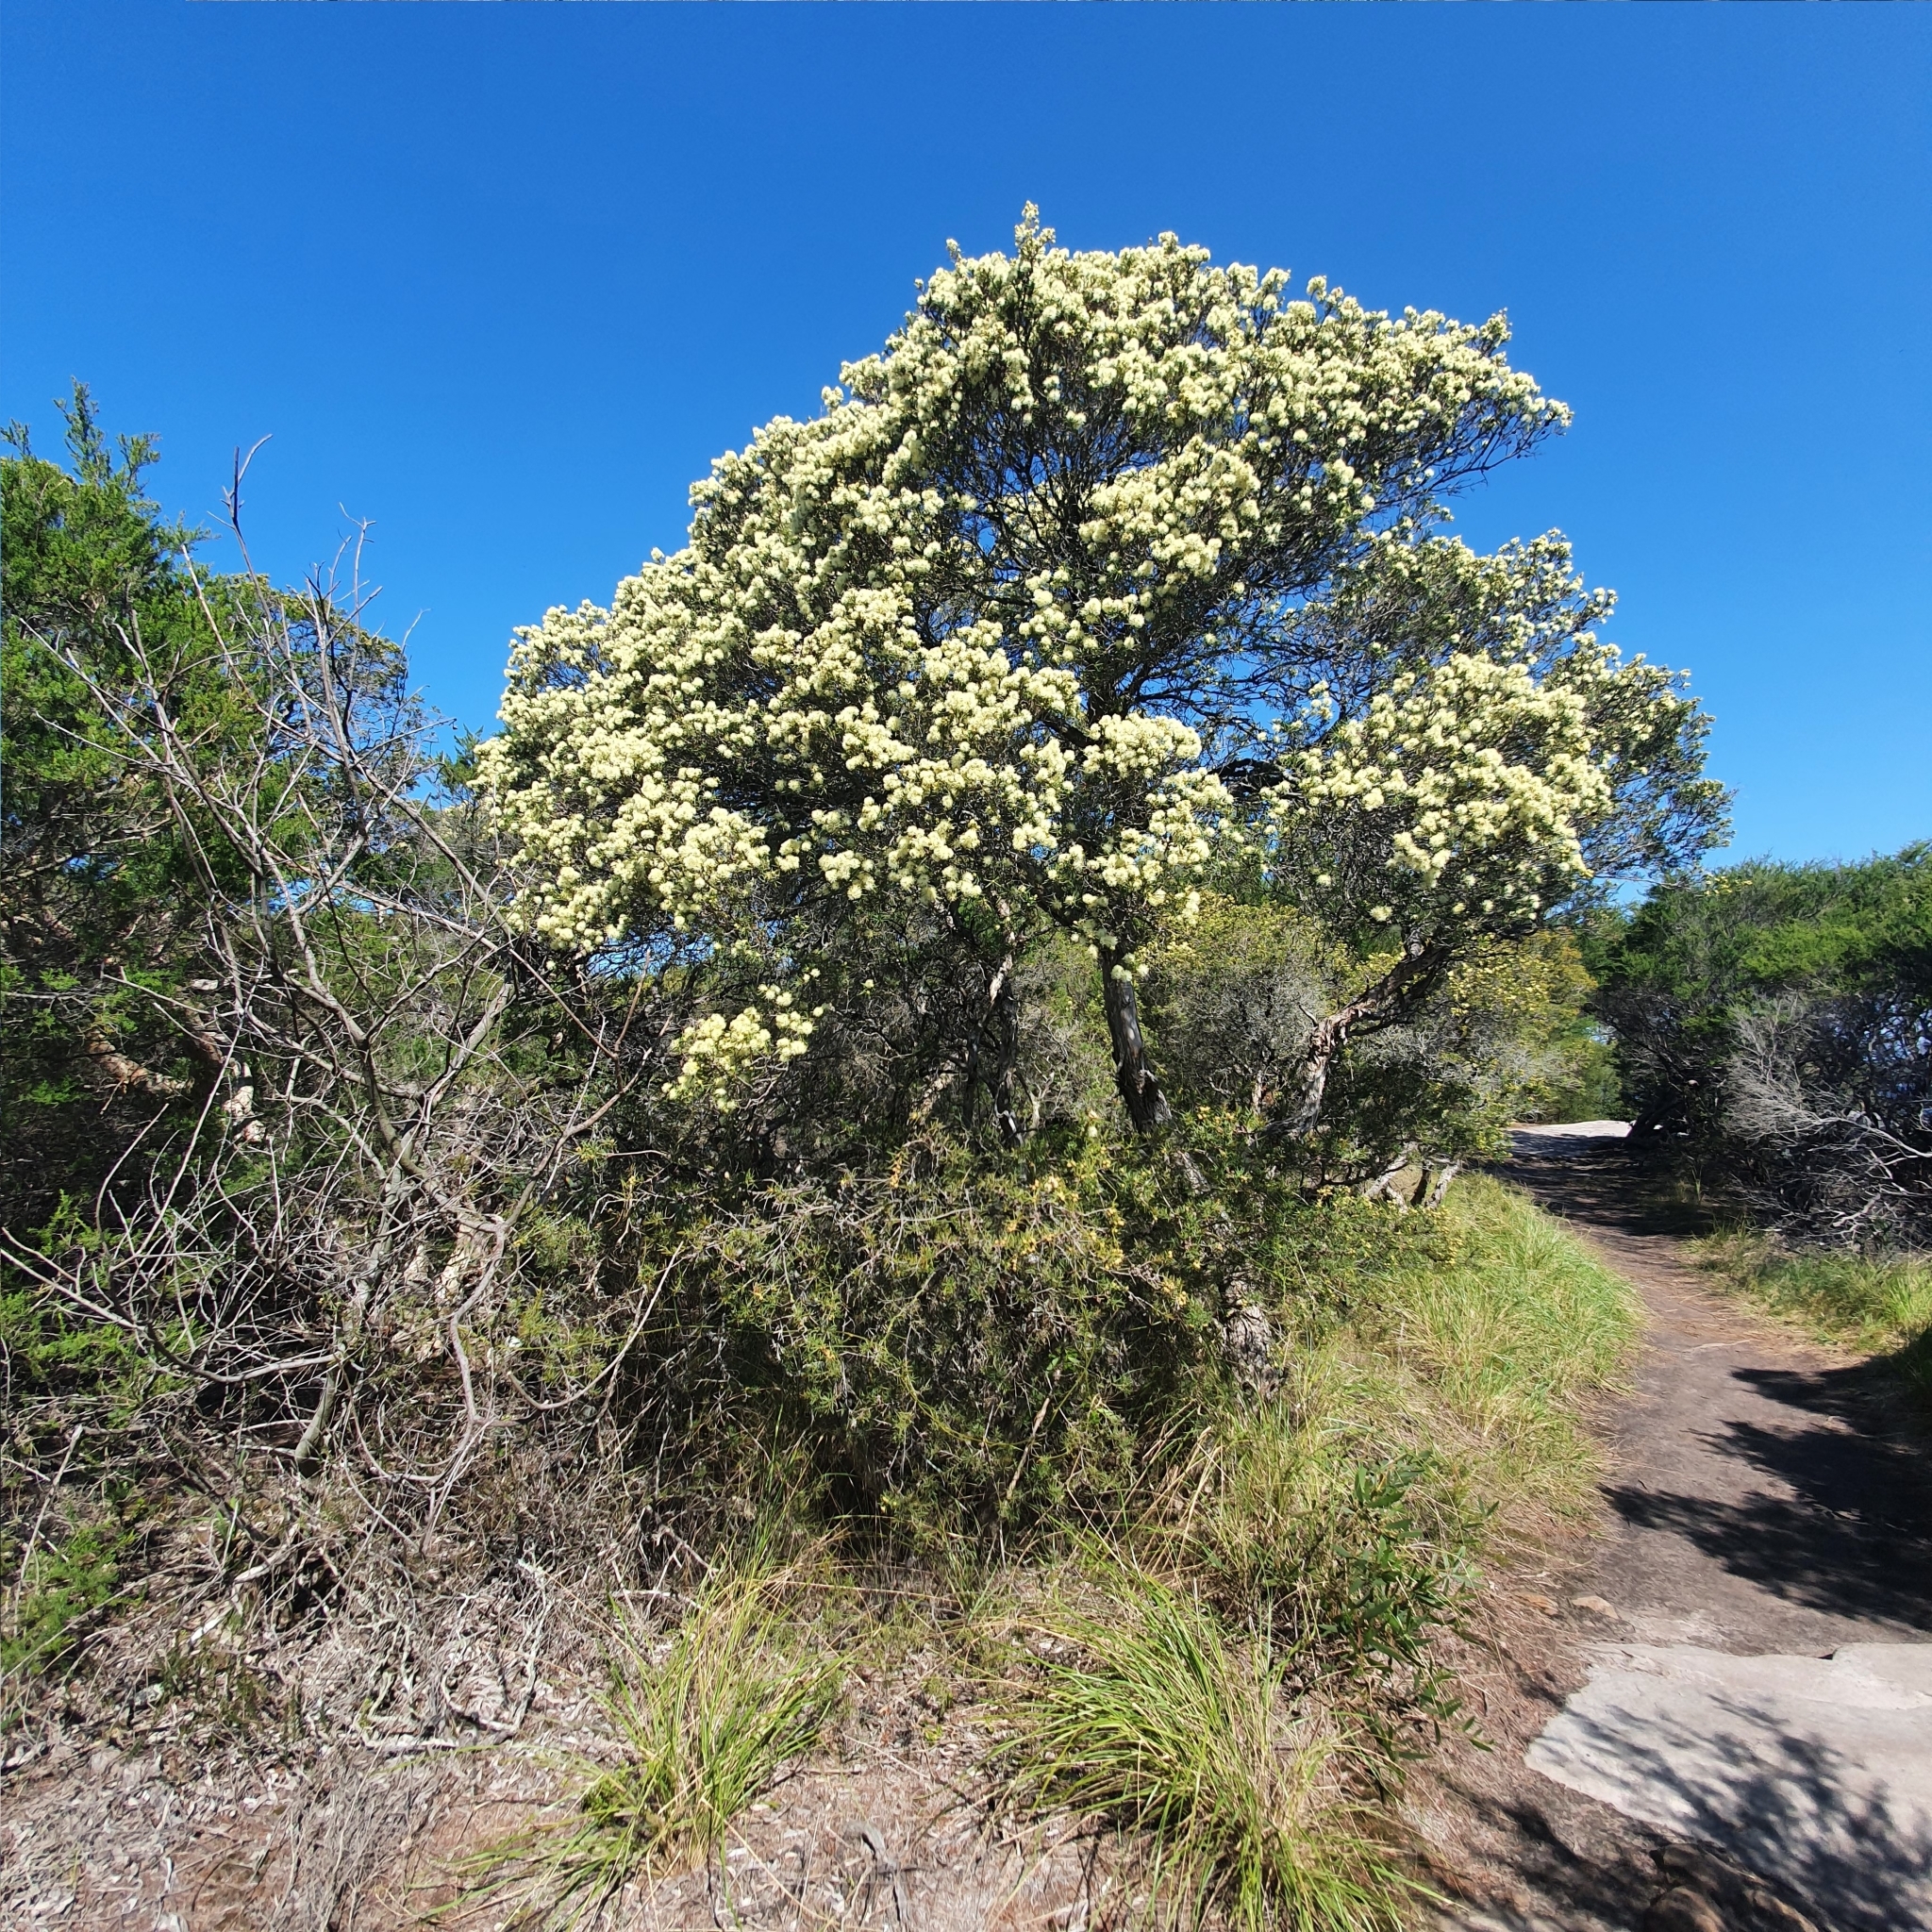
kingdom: Plantae
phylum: Tracheophyta
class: Magnoliopsida
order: Myrtales
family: Myrtaceae
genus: Melaleuca
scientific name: Melaleuca nodosa
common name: Prickly-leaf paperbark
